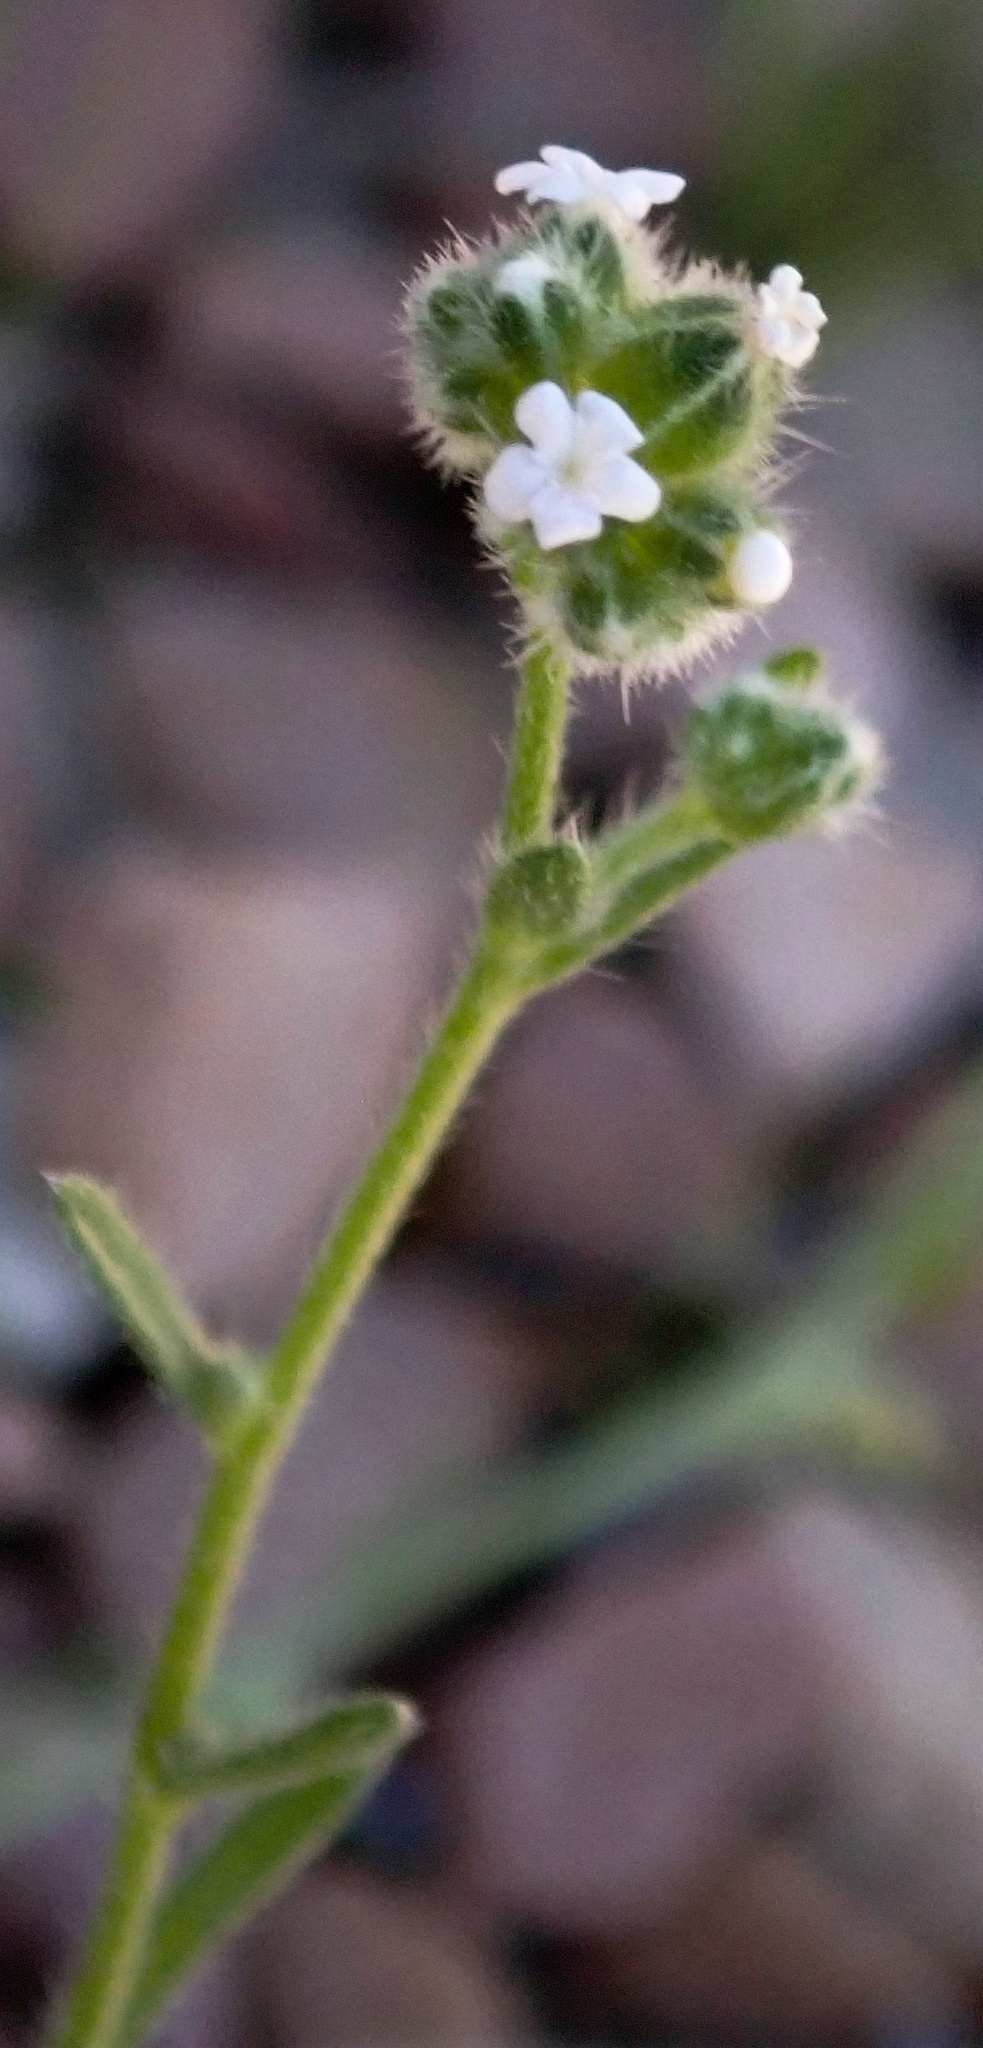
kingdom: Plantae
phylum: Tracheophyta
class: Magnoliopsida
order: Boraginales
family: Boraginaceae
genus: Cryptantha
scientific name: Cryptantha pterocarya
